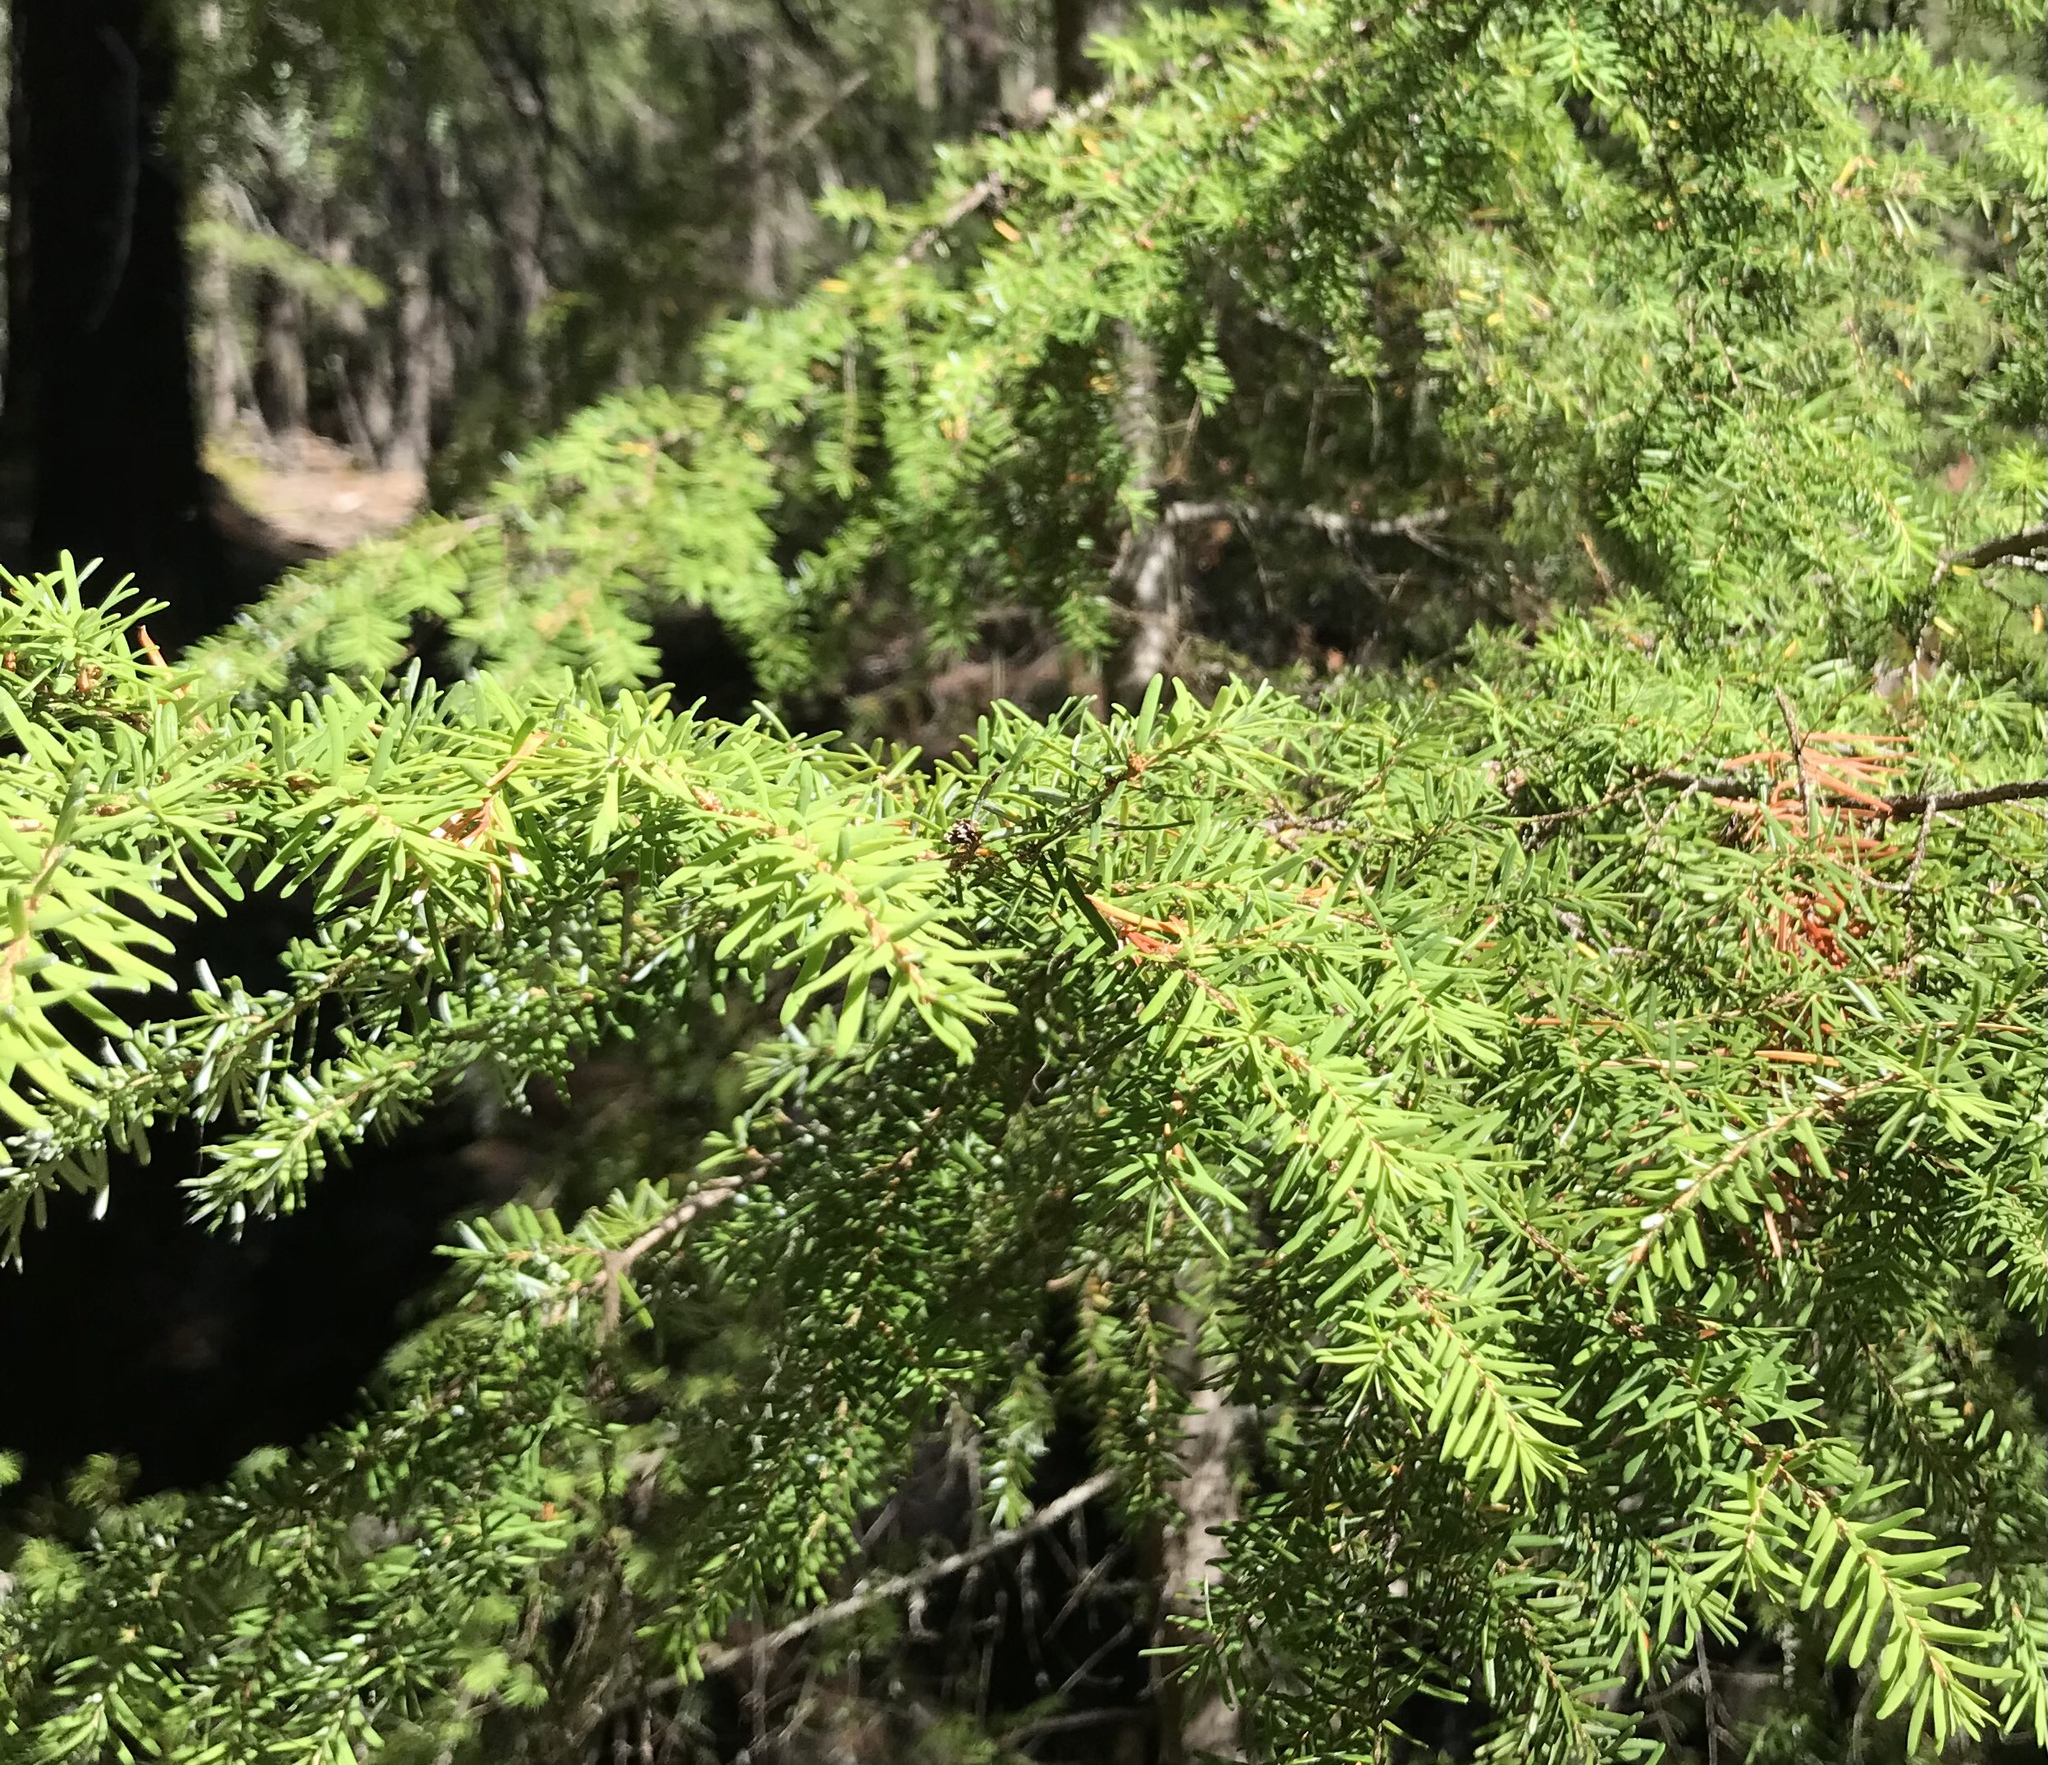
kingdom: Plantae
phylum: Tracheophyta
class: Pinopsida
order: Pinales
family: Pinaceae
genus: Tsuga
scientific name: Tsuga heterophylla
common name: Western hemlock
